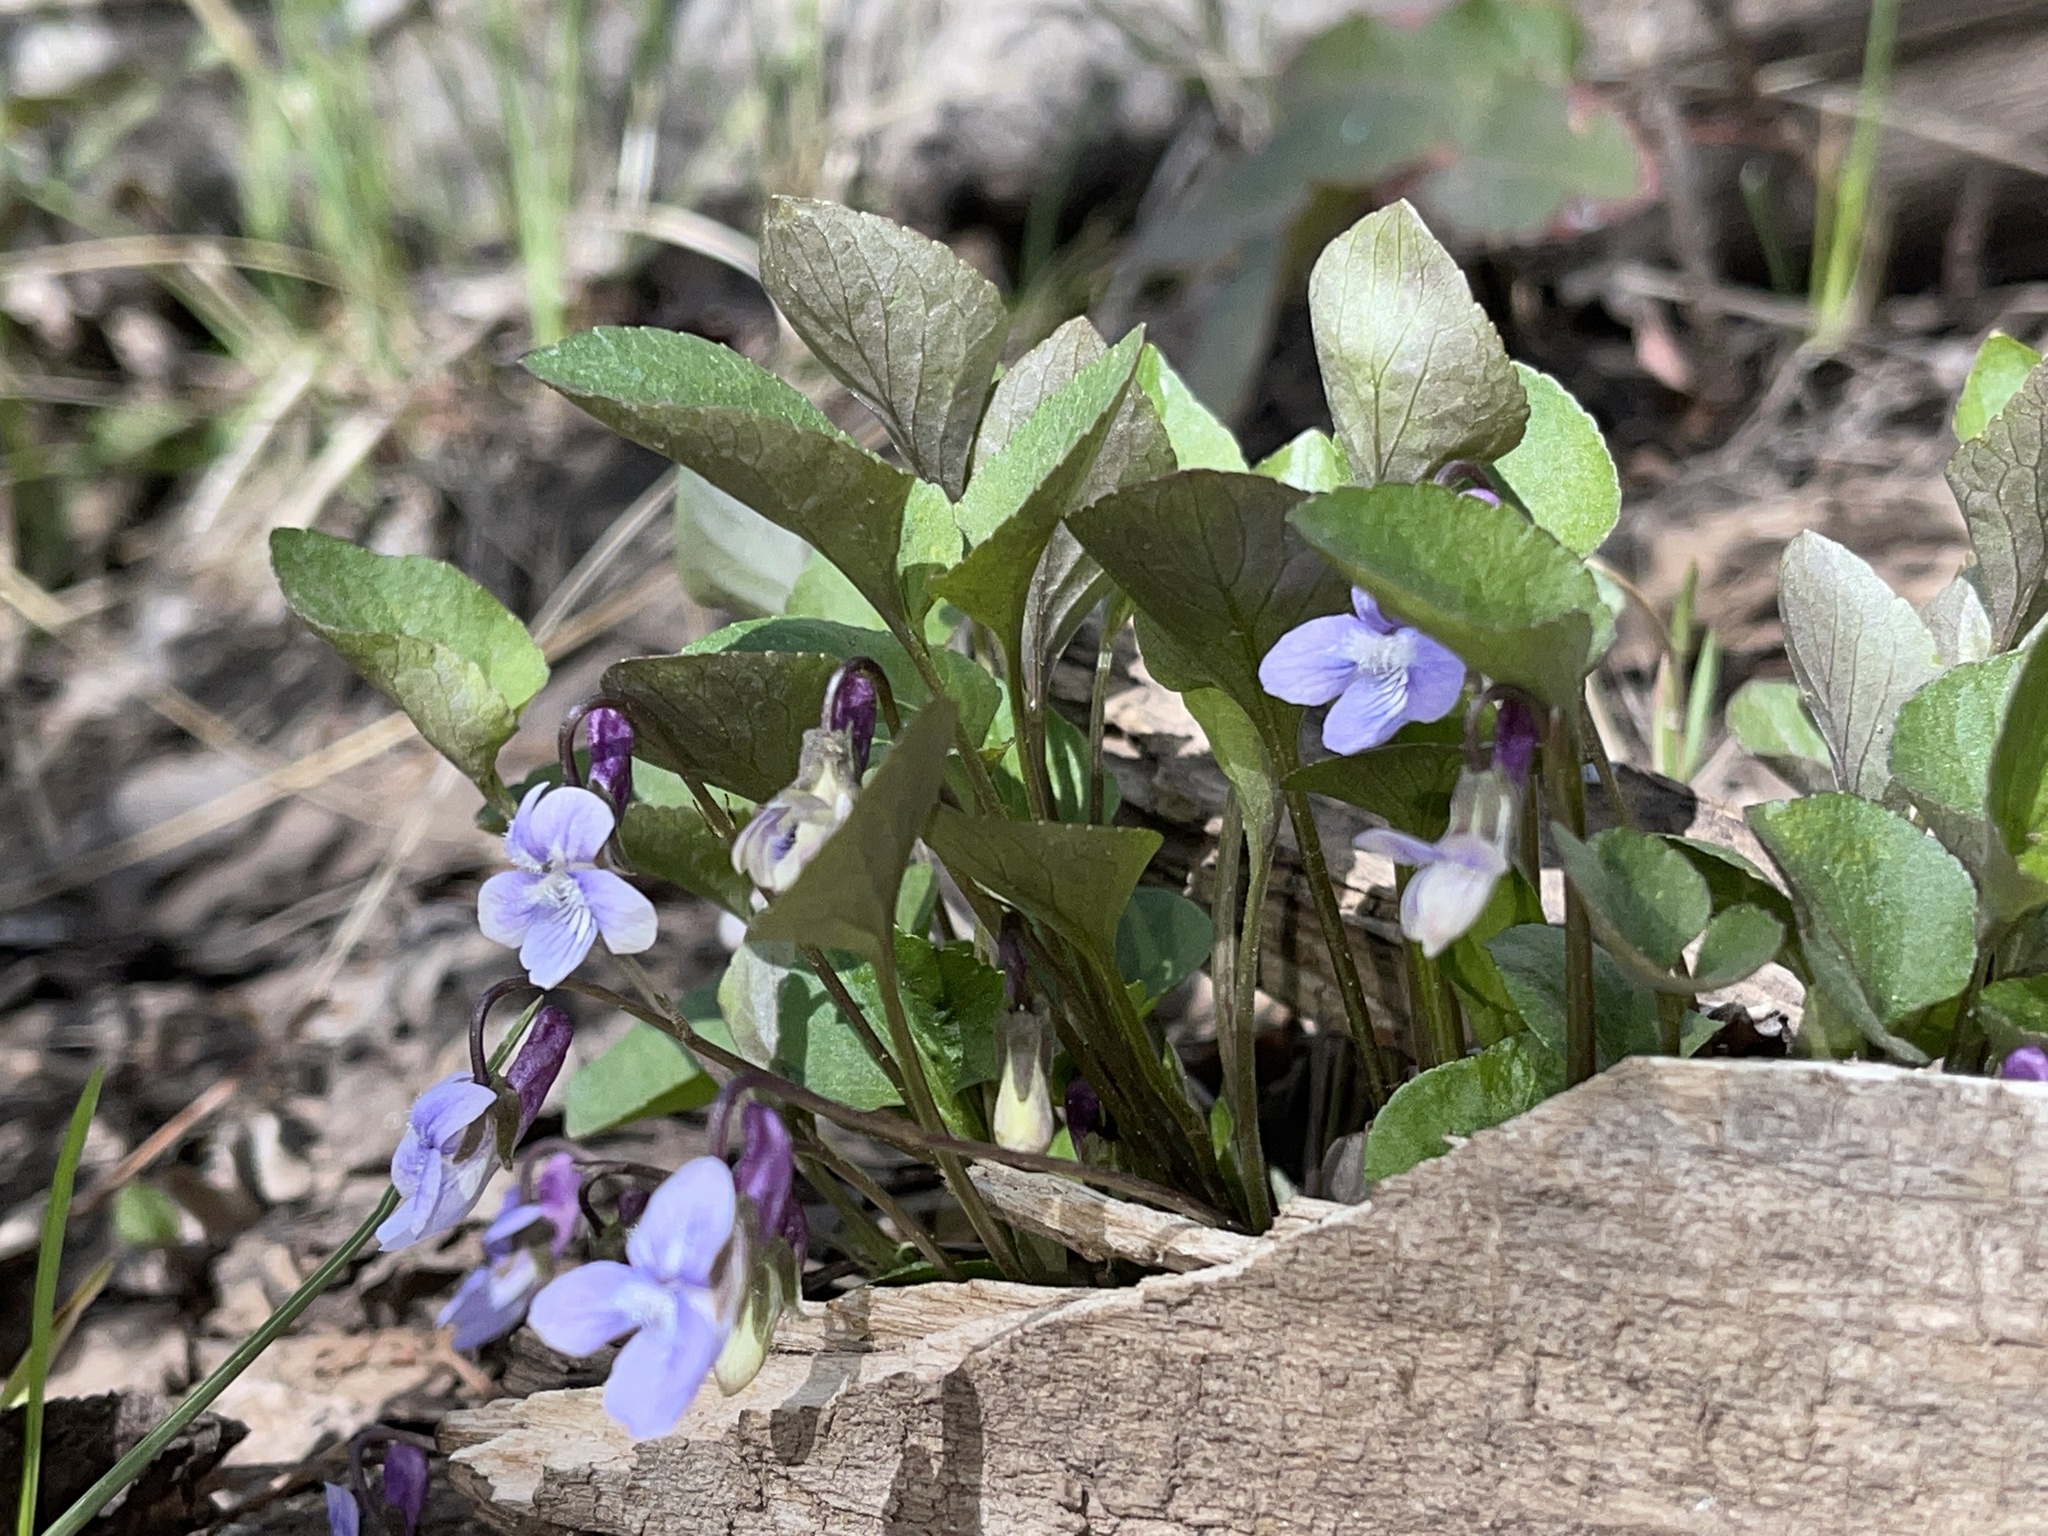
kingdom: Plantae
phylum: Tracheophyta
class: Magnoliopsida
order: Malpighiales
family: Violaceae
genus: Viola
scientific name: Viola adunca
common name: Sand violet
